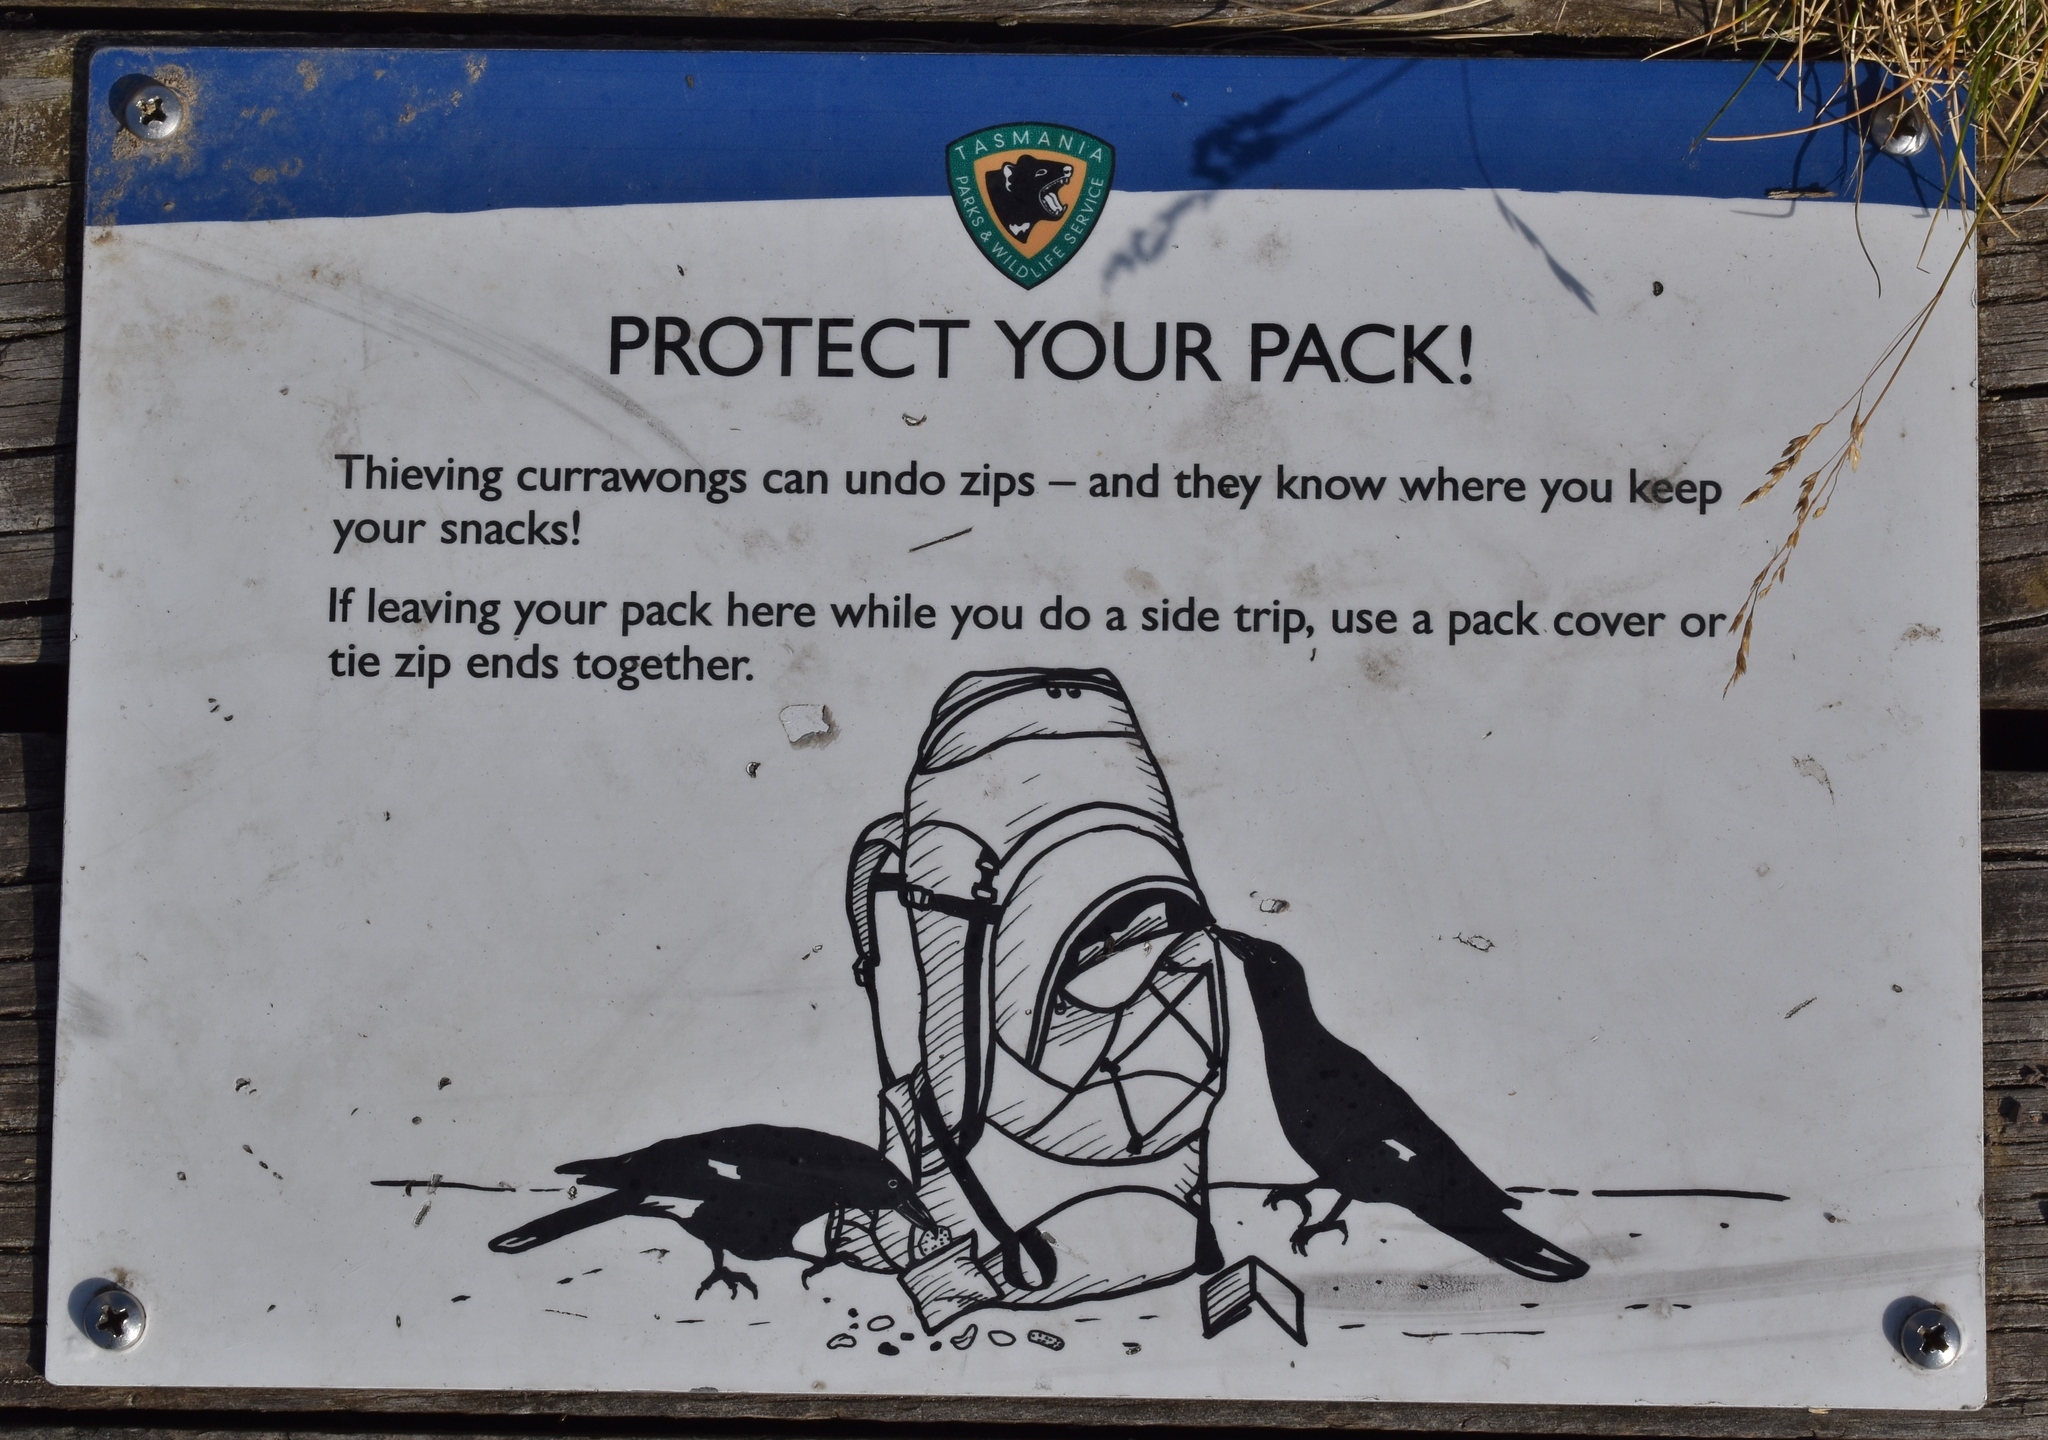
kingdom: Animalia
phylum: Chordata
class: Aves
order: Passeriformes
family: Cracticidae
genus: Strepera
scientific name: Strepera fuliginosa
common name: Black currawong
